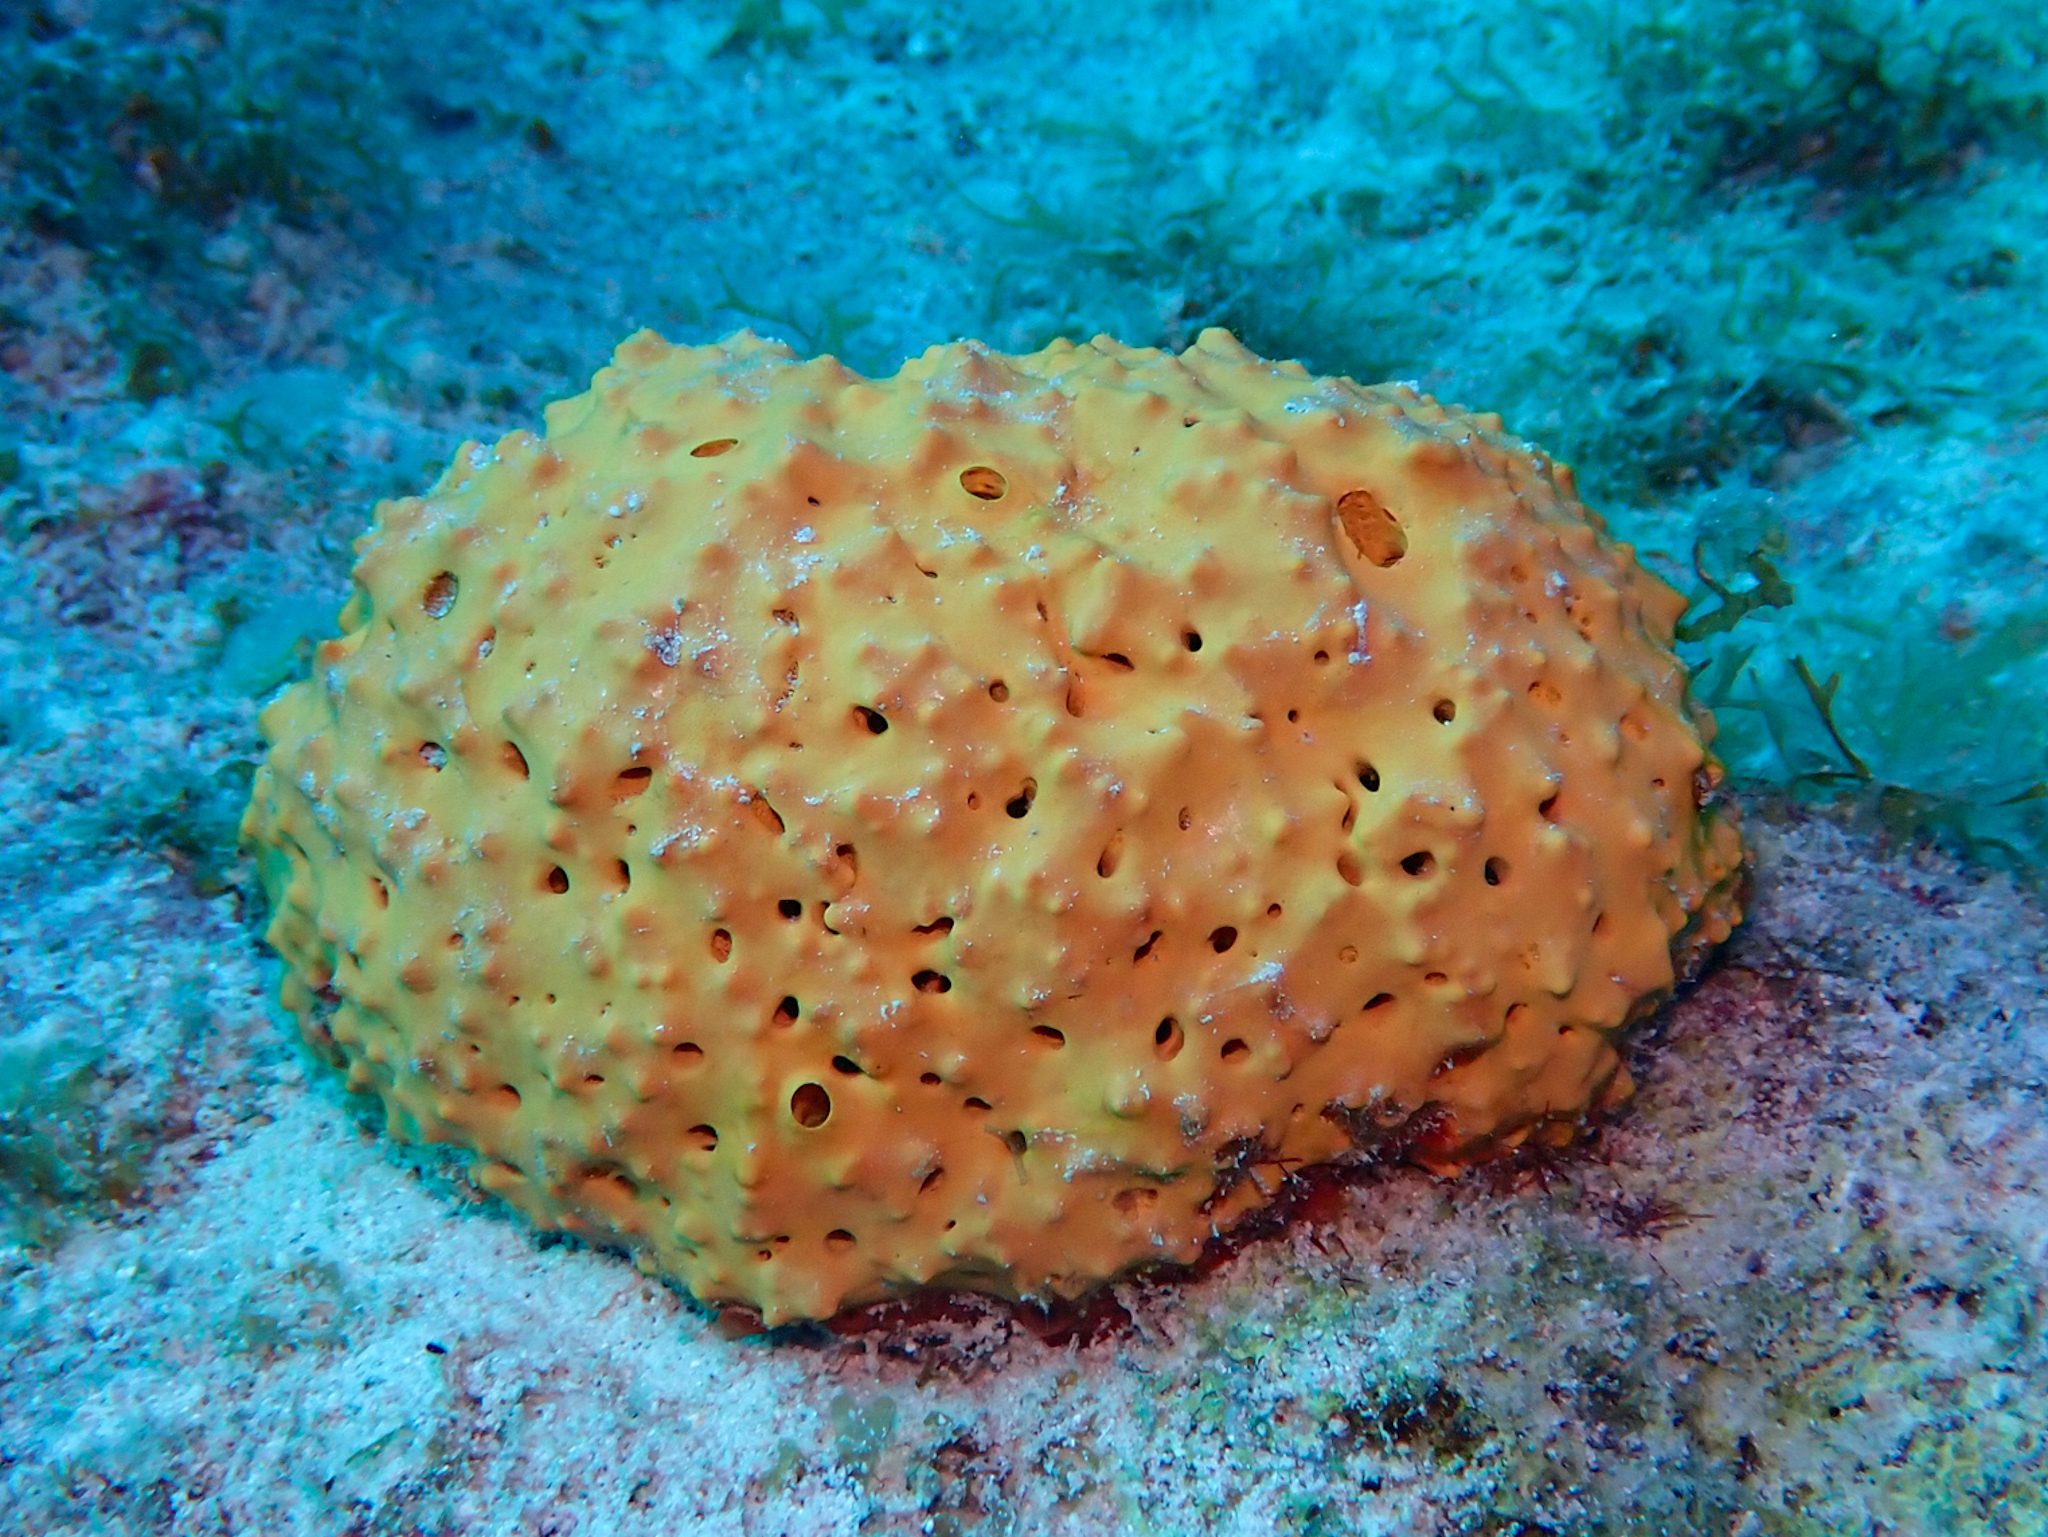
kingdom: Animalia
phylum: Porifera
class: Demospongiae
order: Verongiida
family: Aplysinidae
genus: Aiolochroia
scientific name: Aiolochroia crassa
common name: Branching tube sponge
